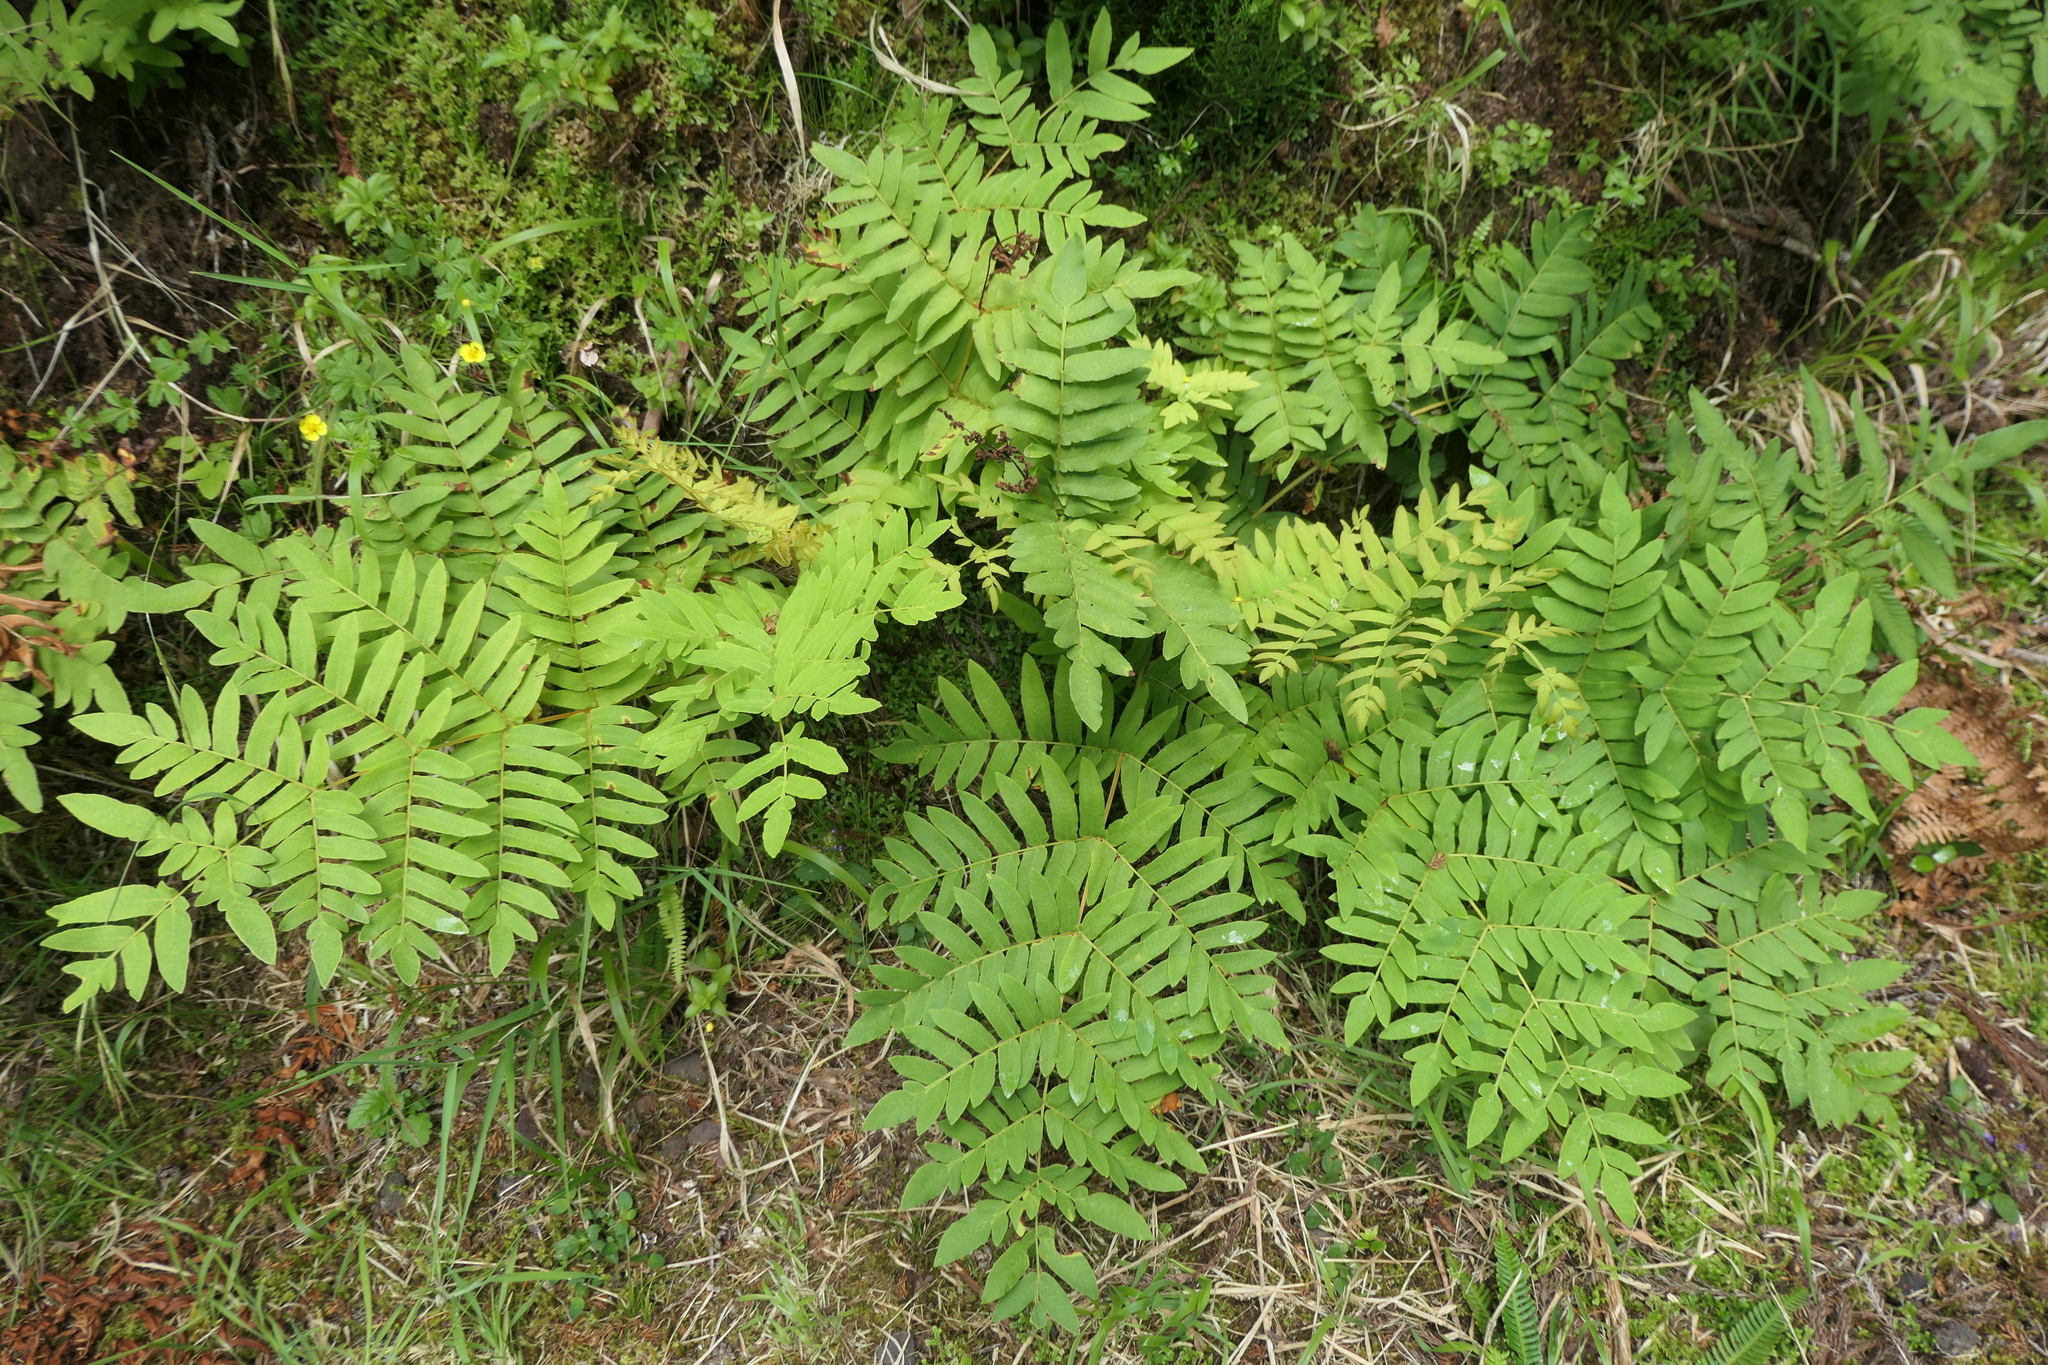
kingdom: Plantae
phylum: Tracheophyta
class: Polypodiopsida
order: Osmundales
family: Osmundaceae
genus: Osmunda
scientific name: Osmunda regalis
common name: Royal fern
